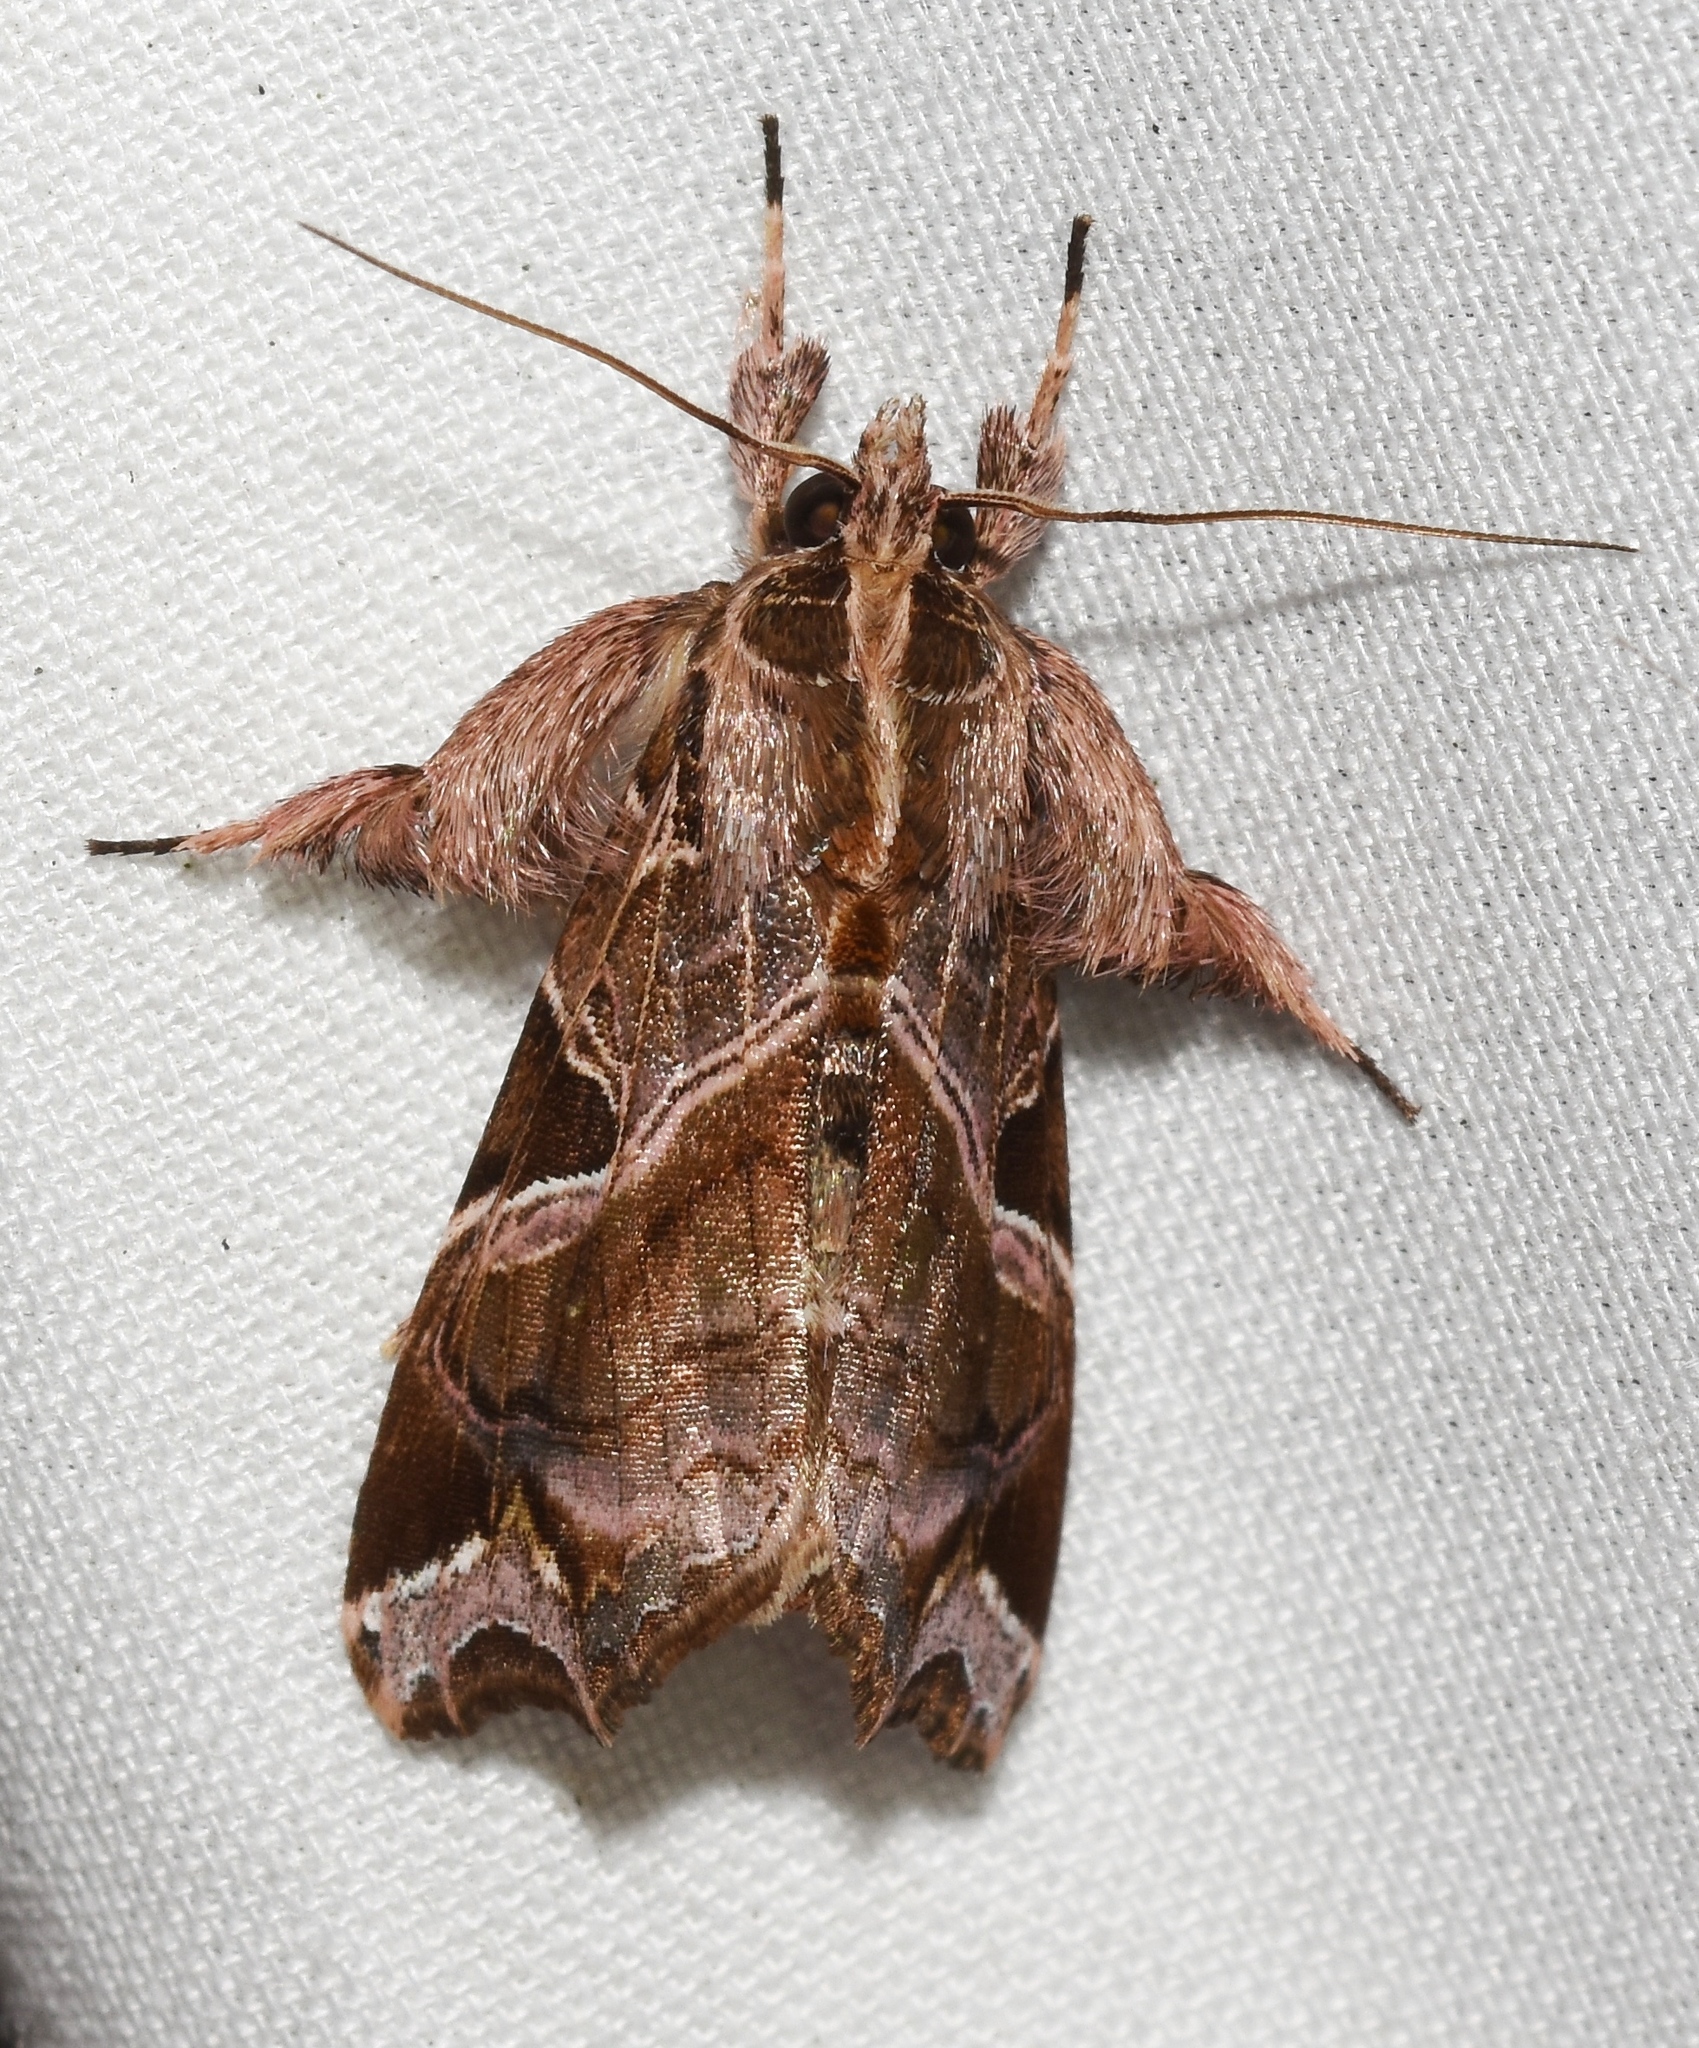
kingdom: Animalia
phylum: Arthropoda
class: Insecta
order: Lepidoptera
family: Noctuidae
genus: Callopistria
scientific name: Callopistria floridensis
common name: Florida fern moth
